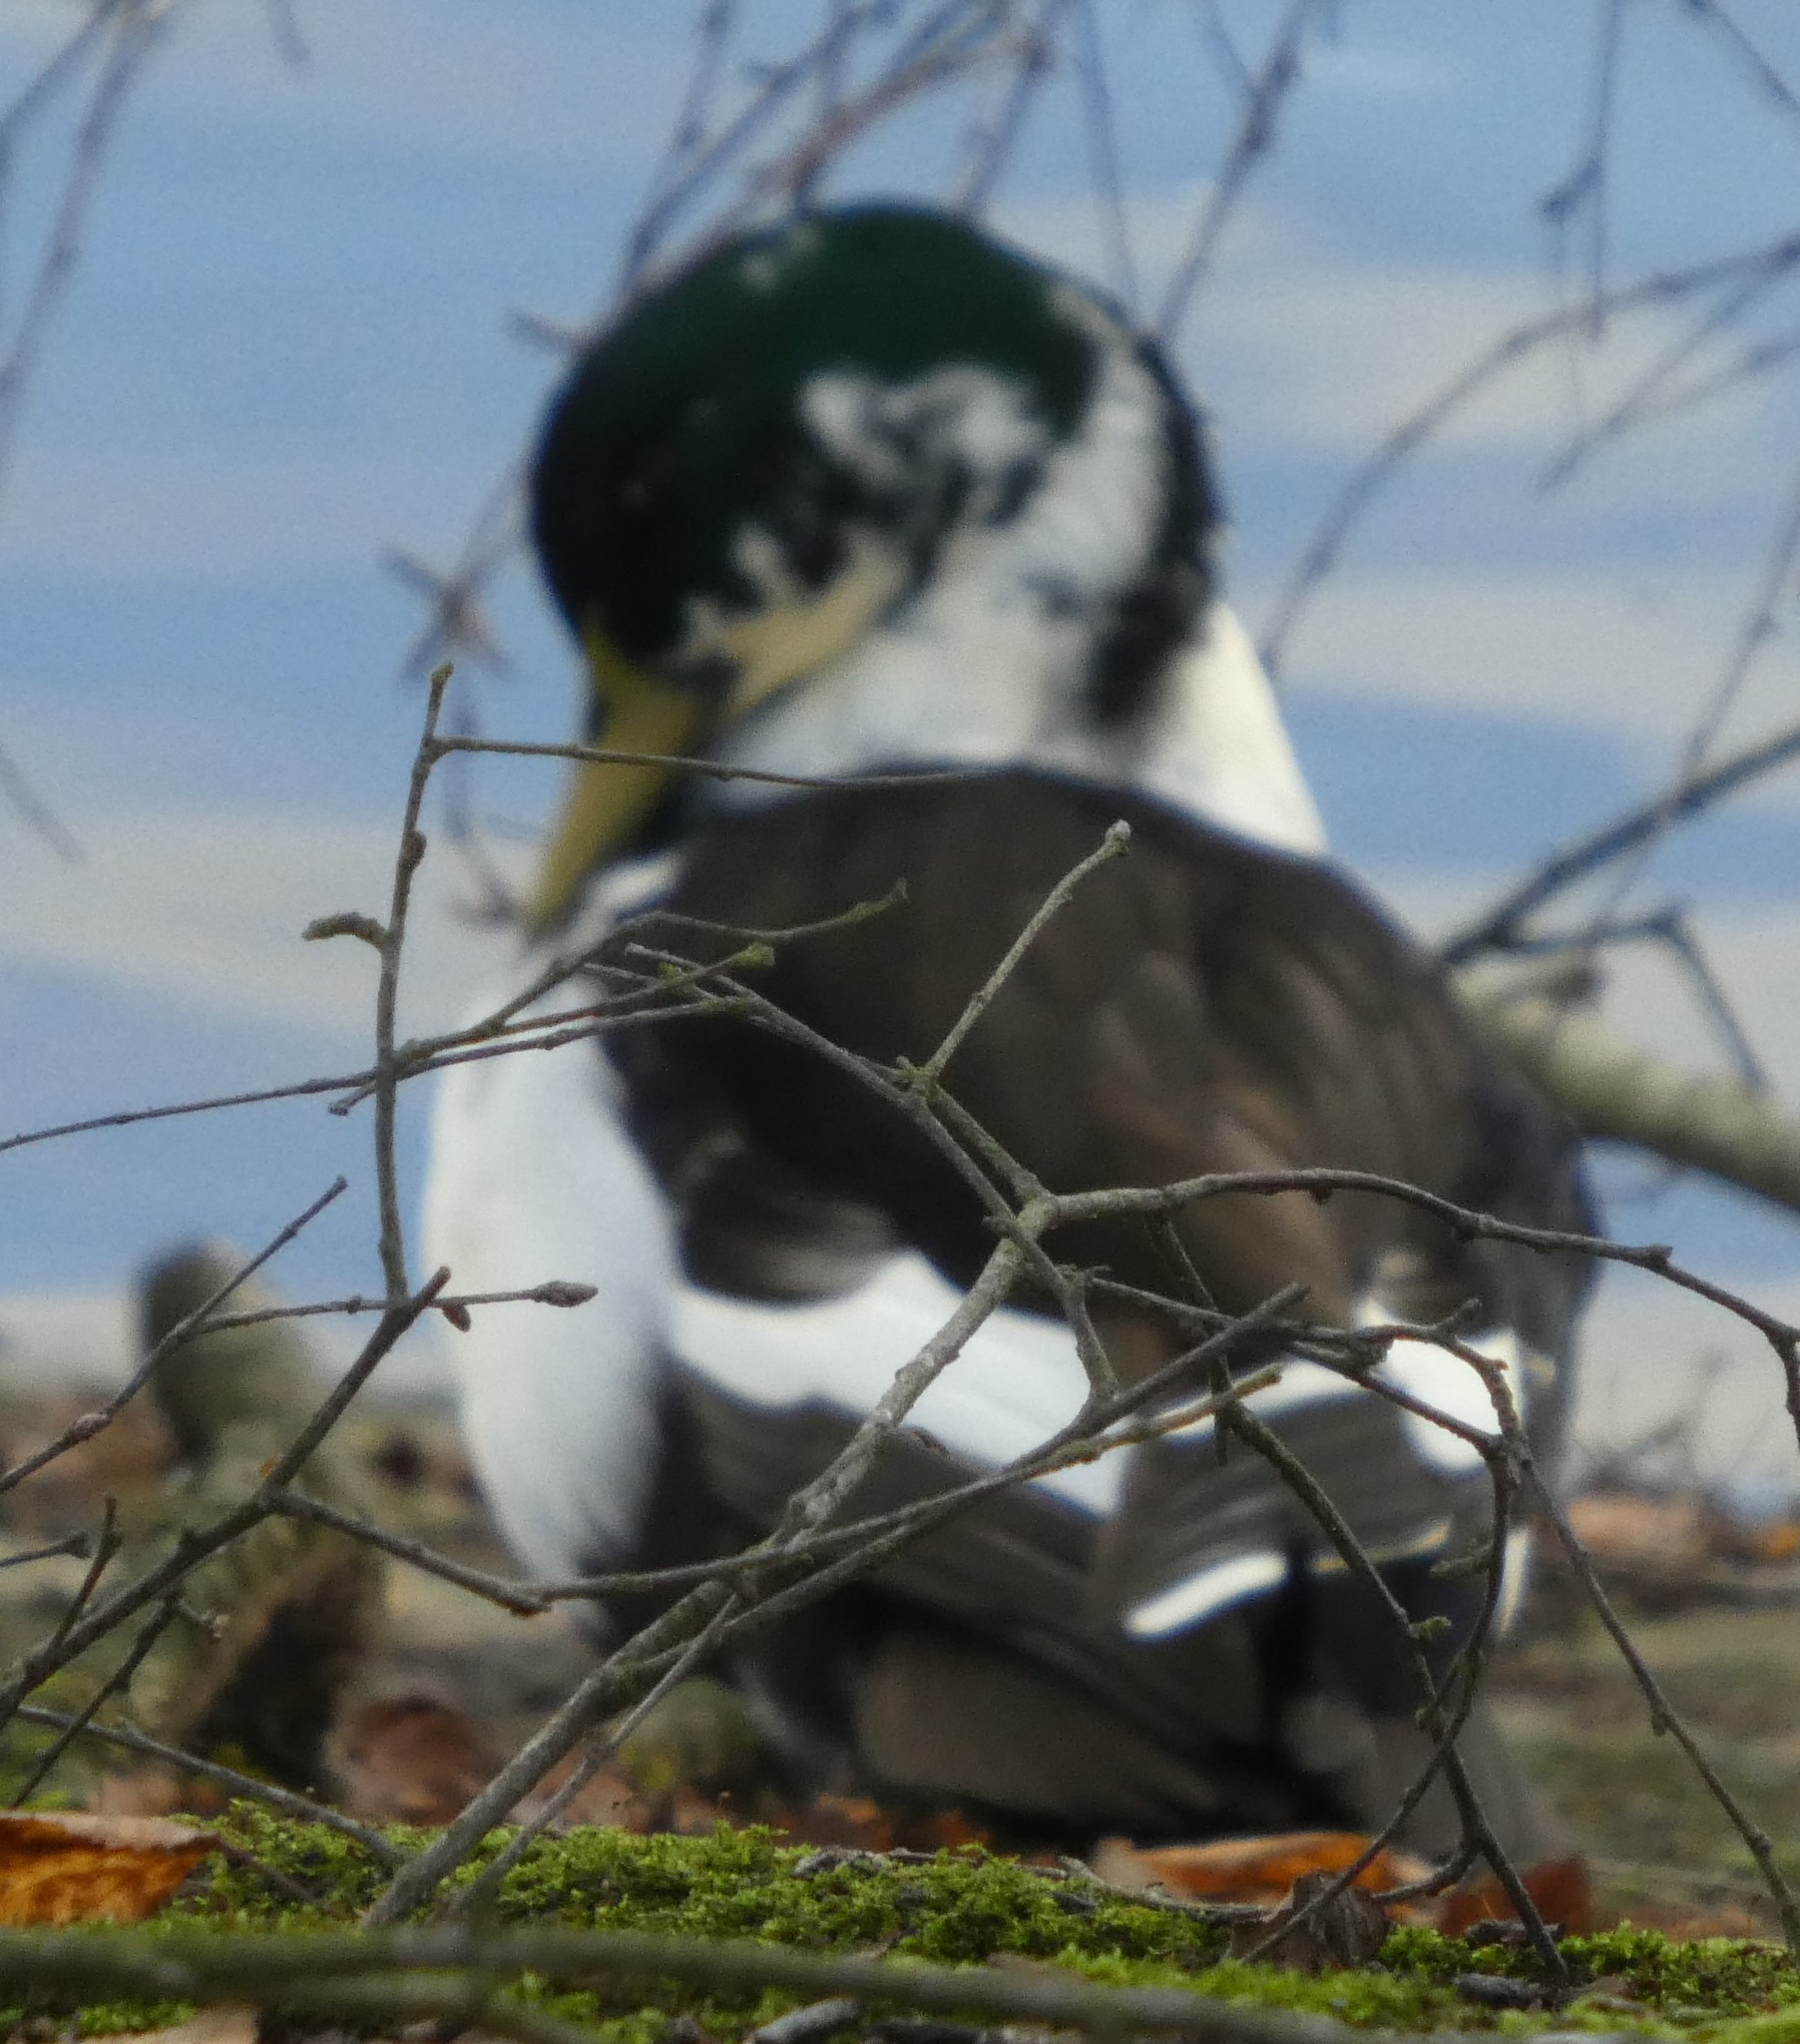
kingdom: Animalia
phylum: Chordata
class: Aves
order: Anseriformes
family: Anatidae
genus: Anas
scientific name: Anas platyrhynchos
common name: Mallard
